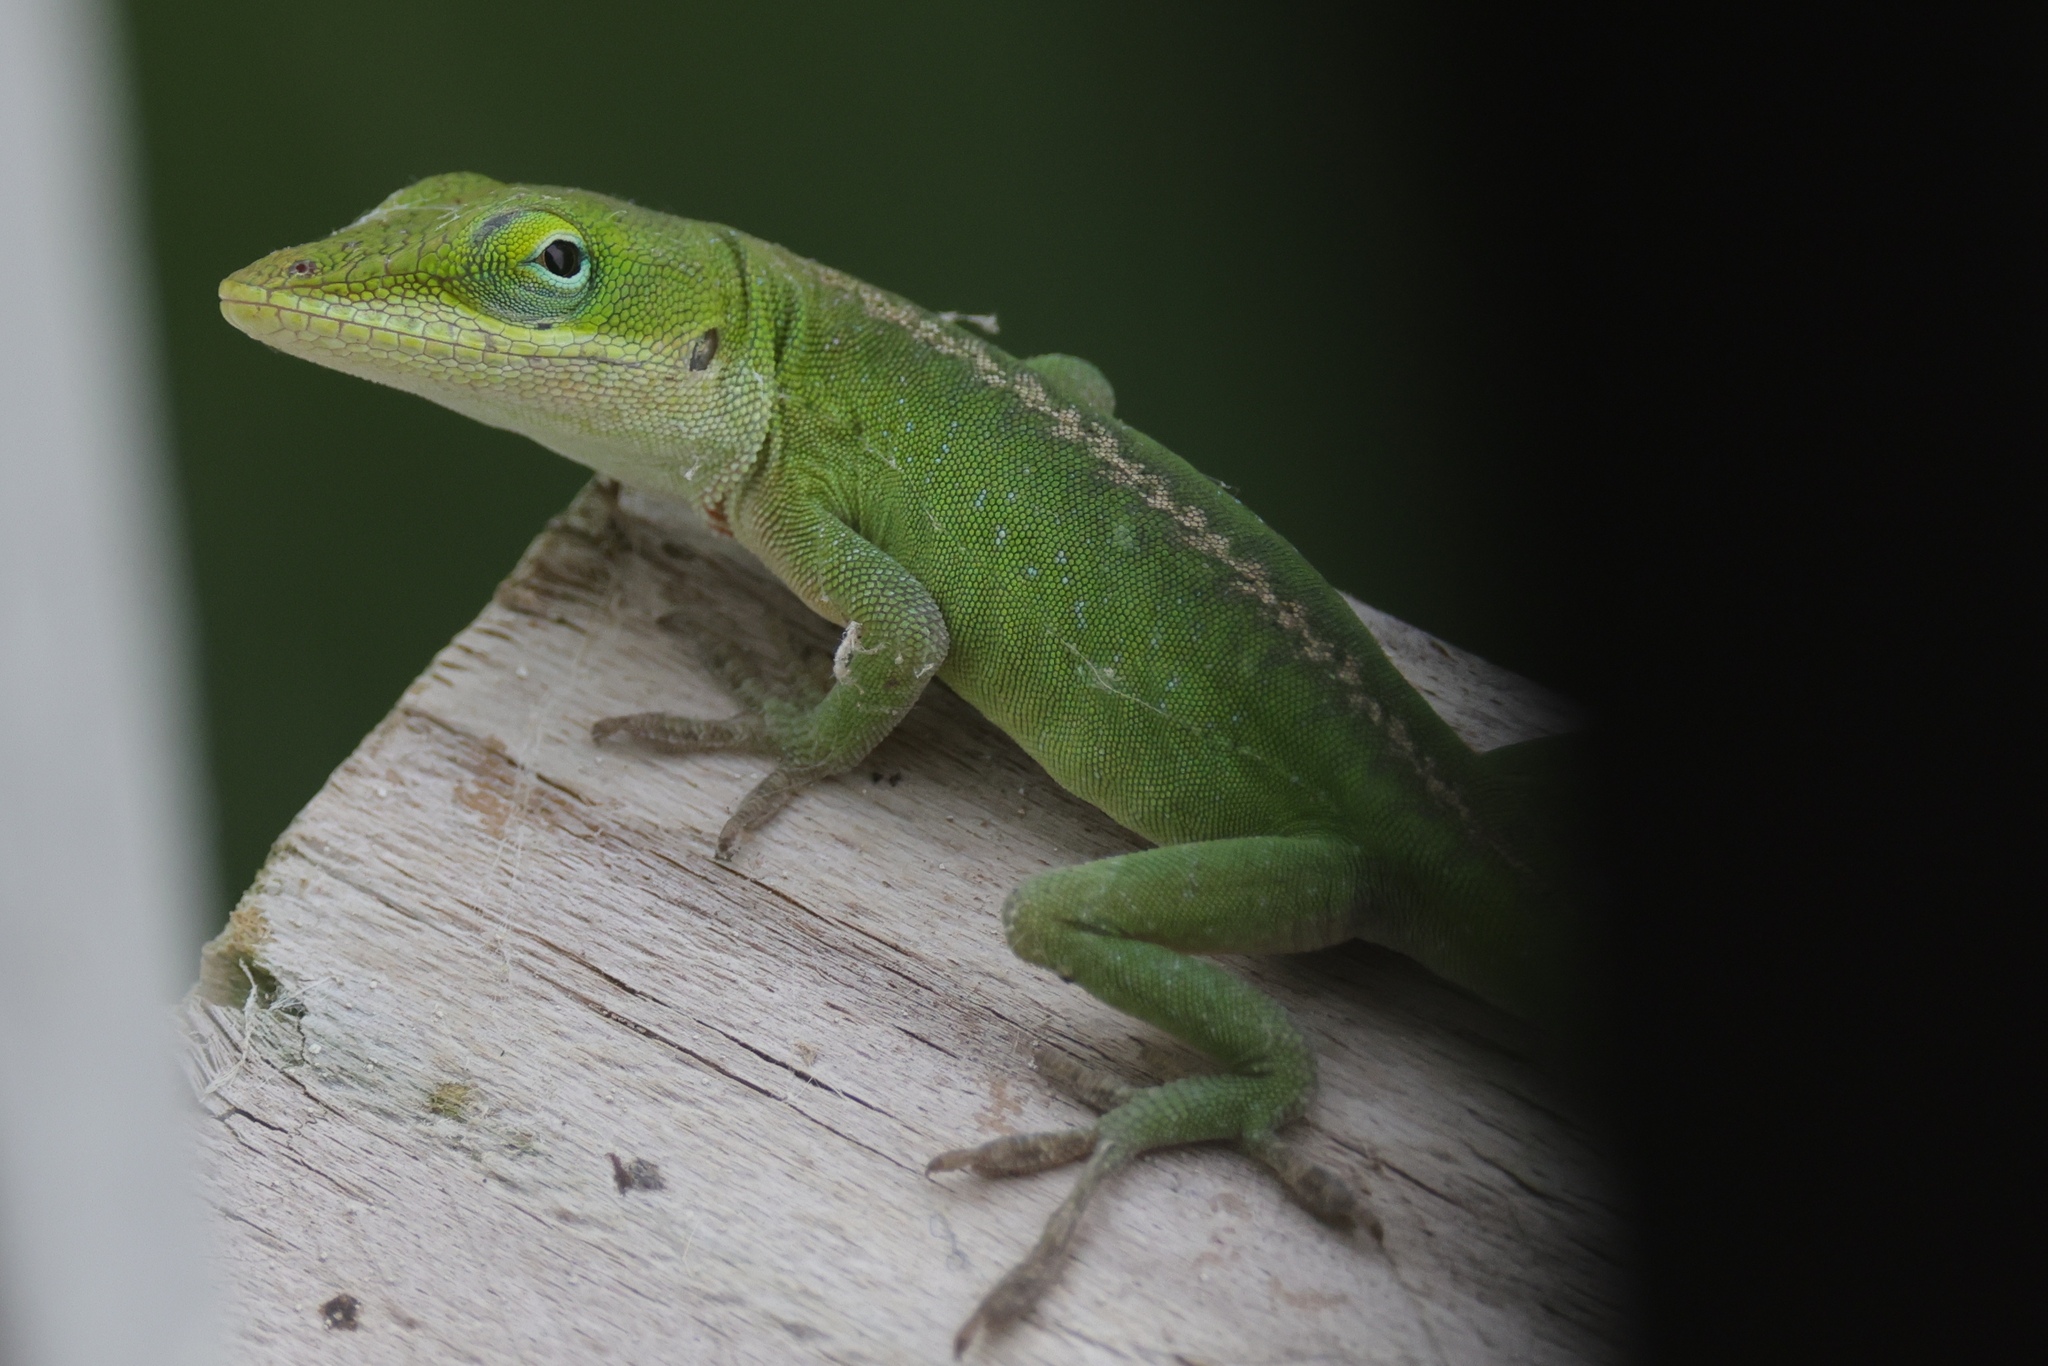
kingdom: Animalia
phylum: Chordata
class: Squamata
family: Dactyloidae
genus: Anolis
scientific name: Anolis carolinensis
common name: Green anole
